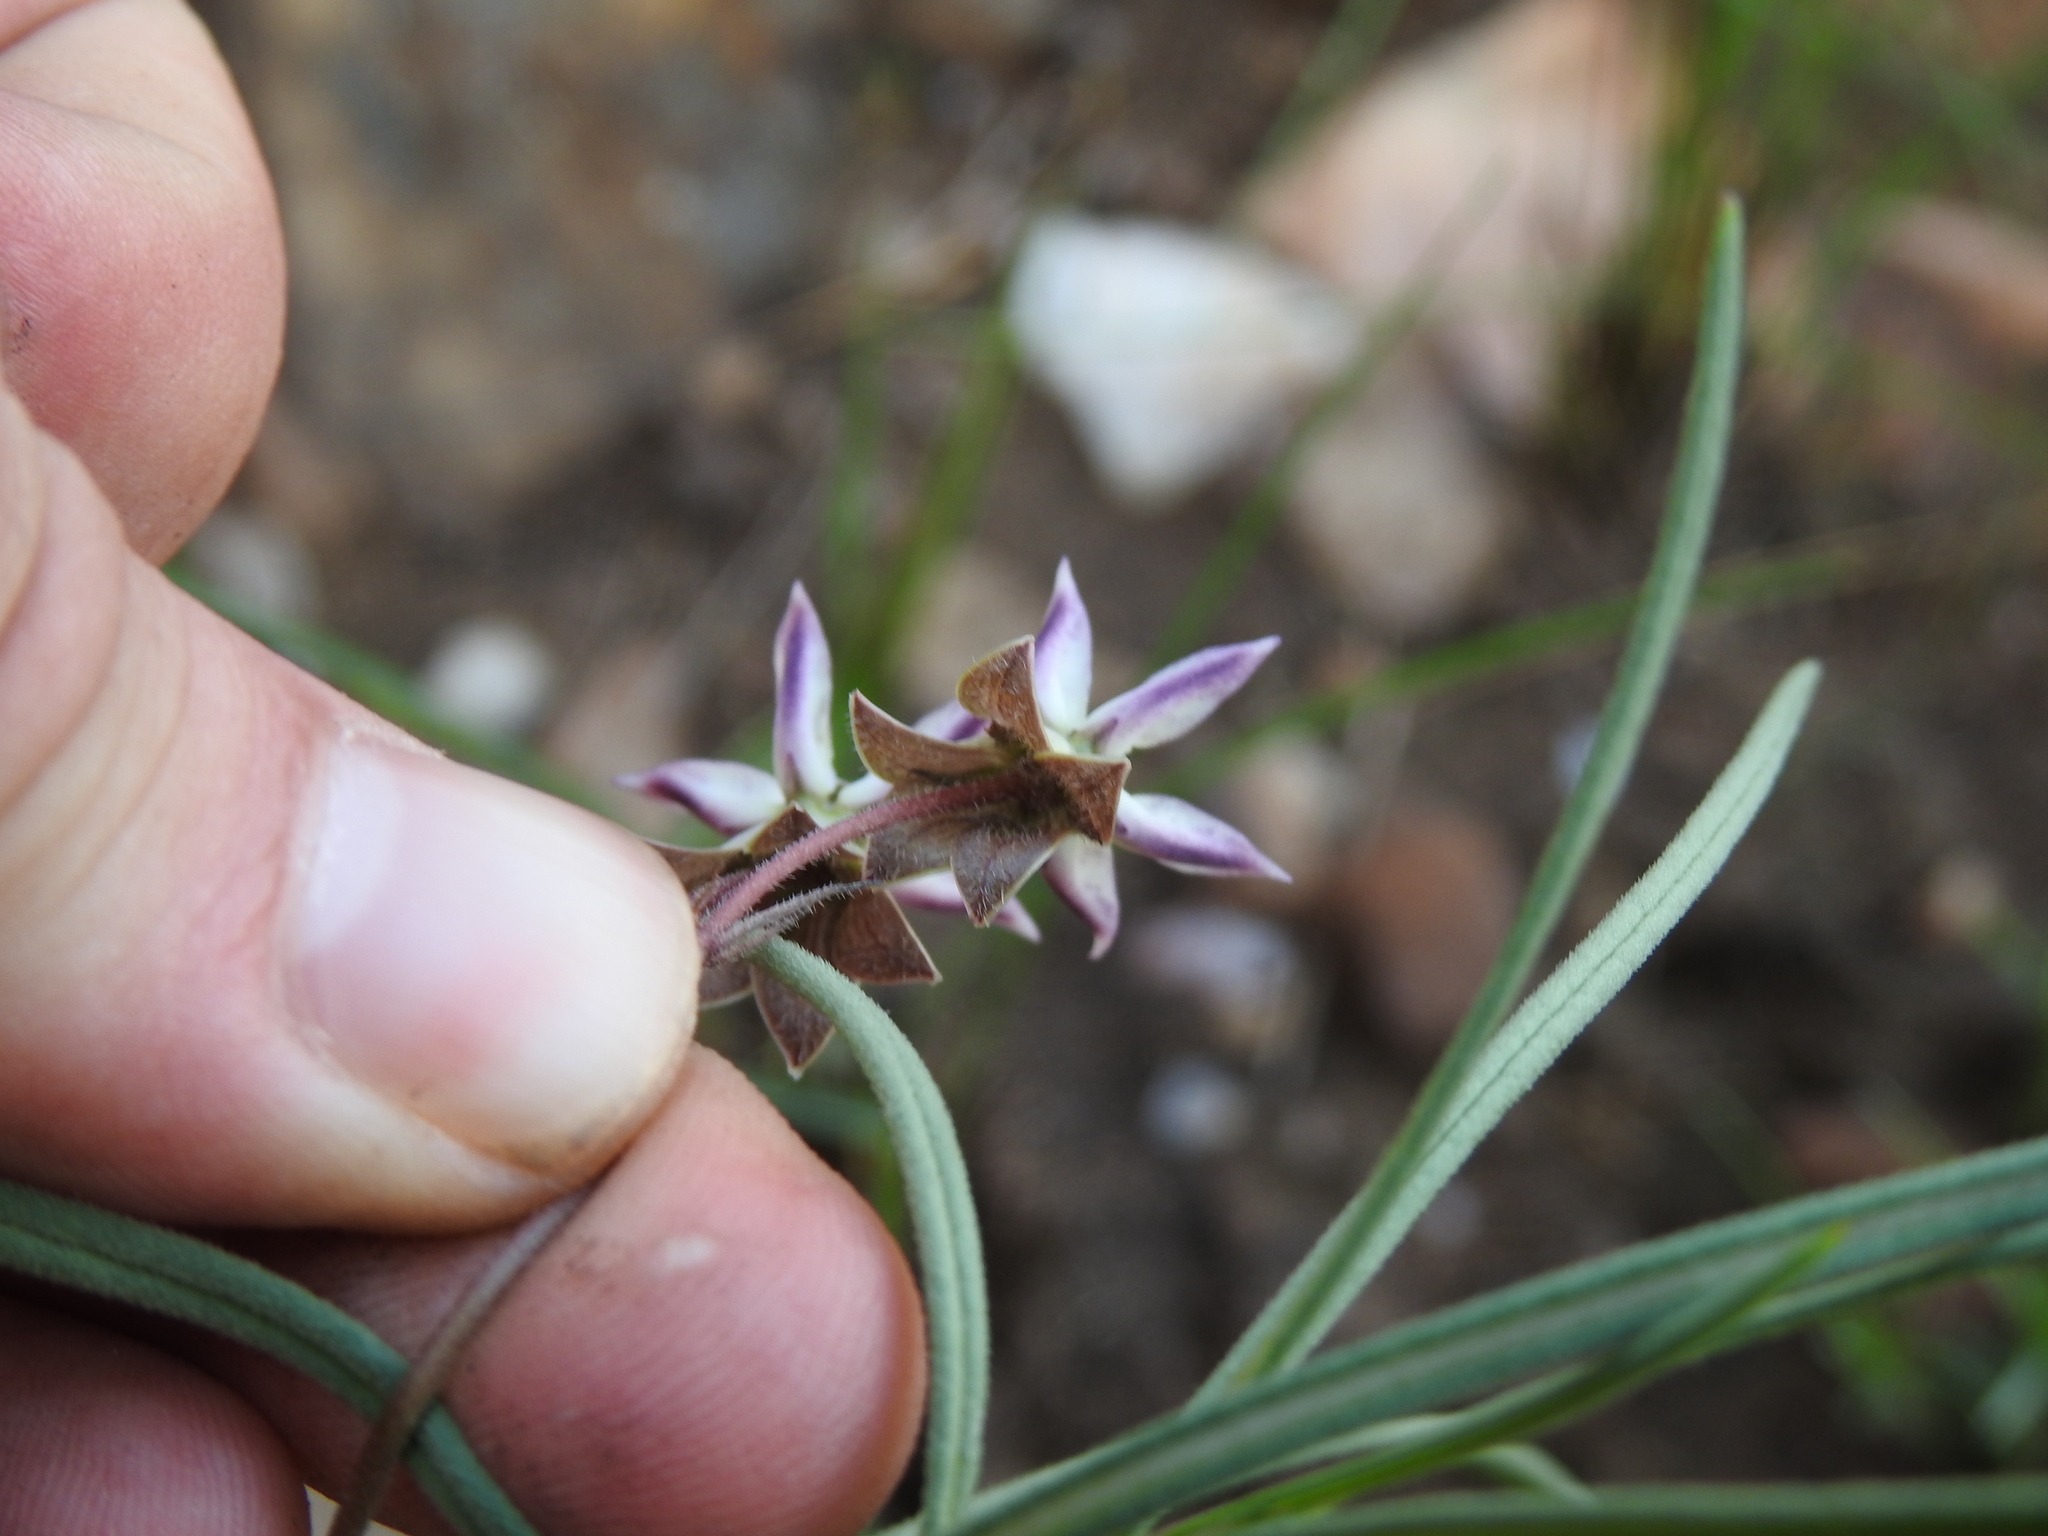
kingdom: Plantae
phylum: Tracheophyta
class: Magnoliopsida
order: Gentianales
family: Apocynaceae
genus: Asclepias
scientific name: Asclepias stellifera
